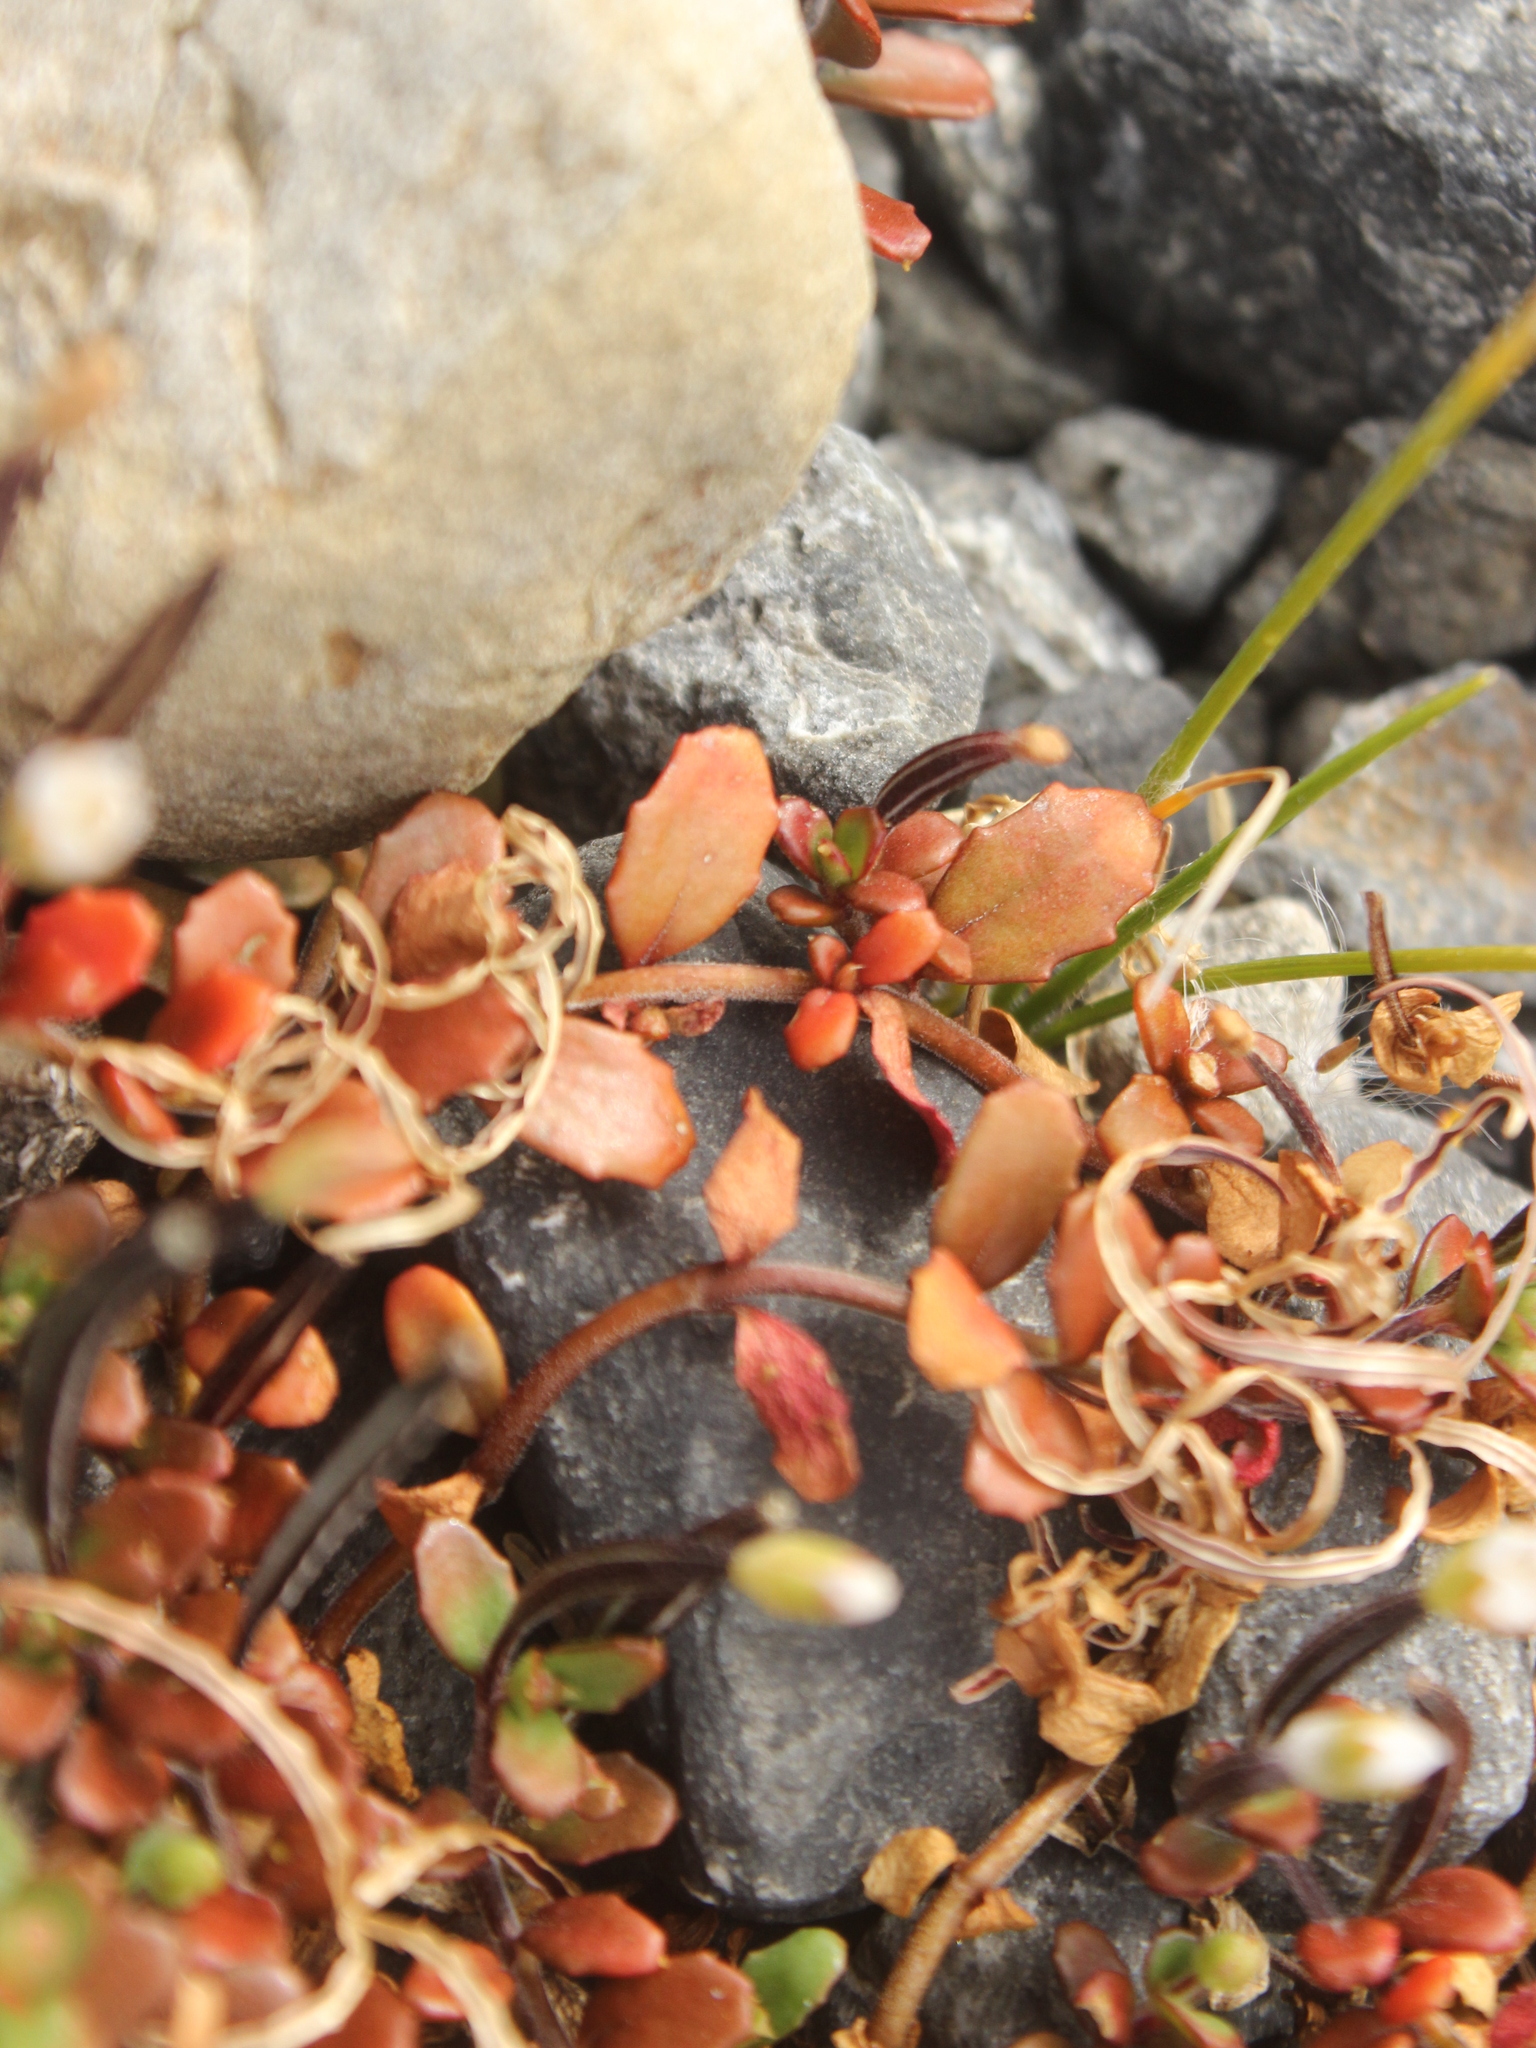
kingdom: Plantae
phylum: Tracheophyta
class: Magnoliopsida
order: Myrtales
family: Onagraceae
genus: Epilobium
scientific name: Epilobium microphyllum
